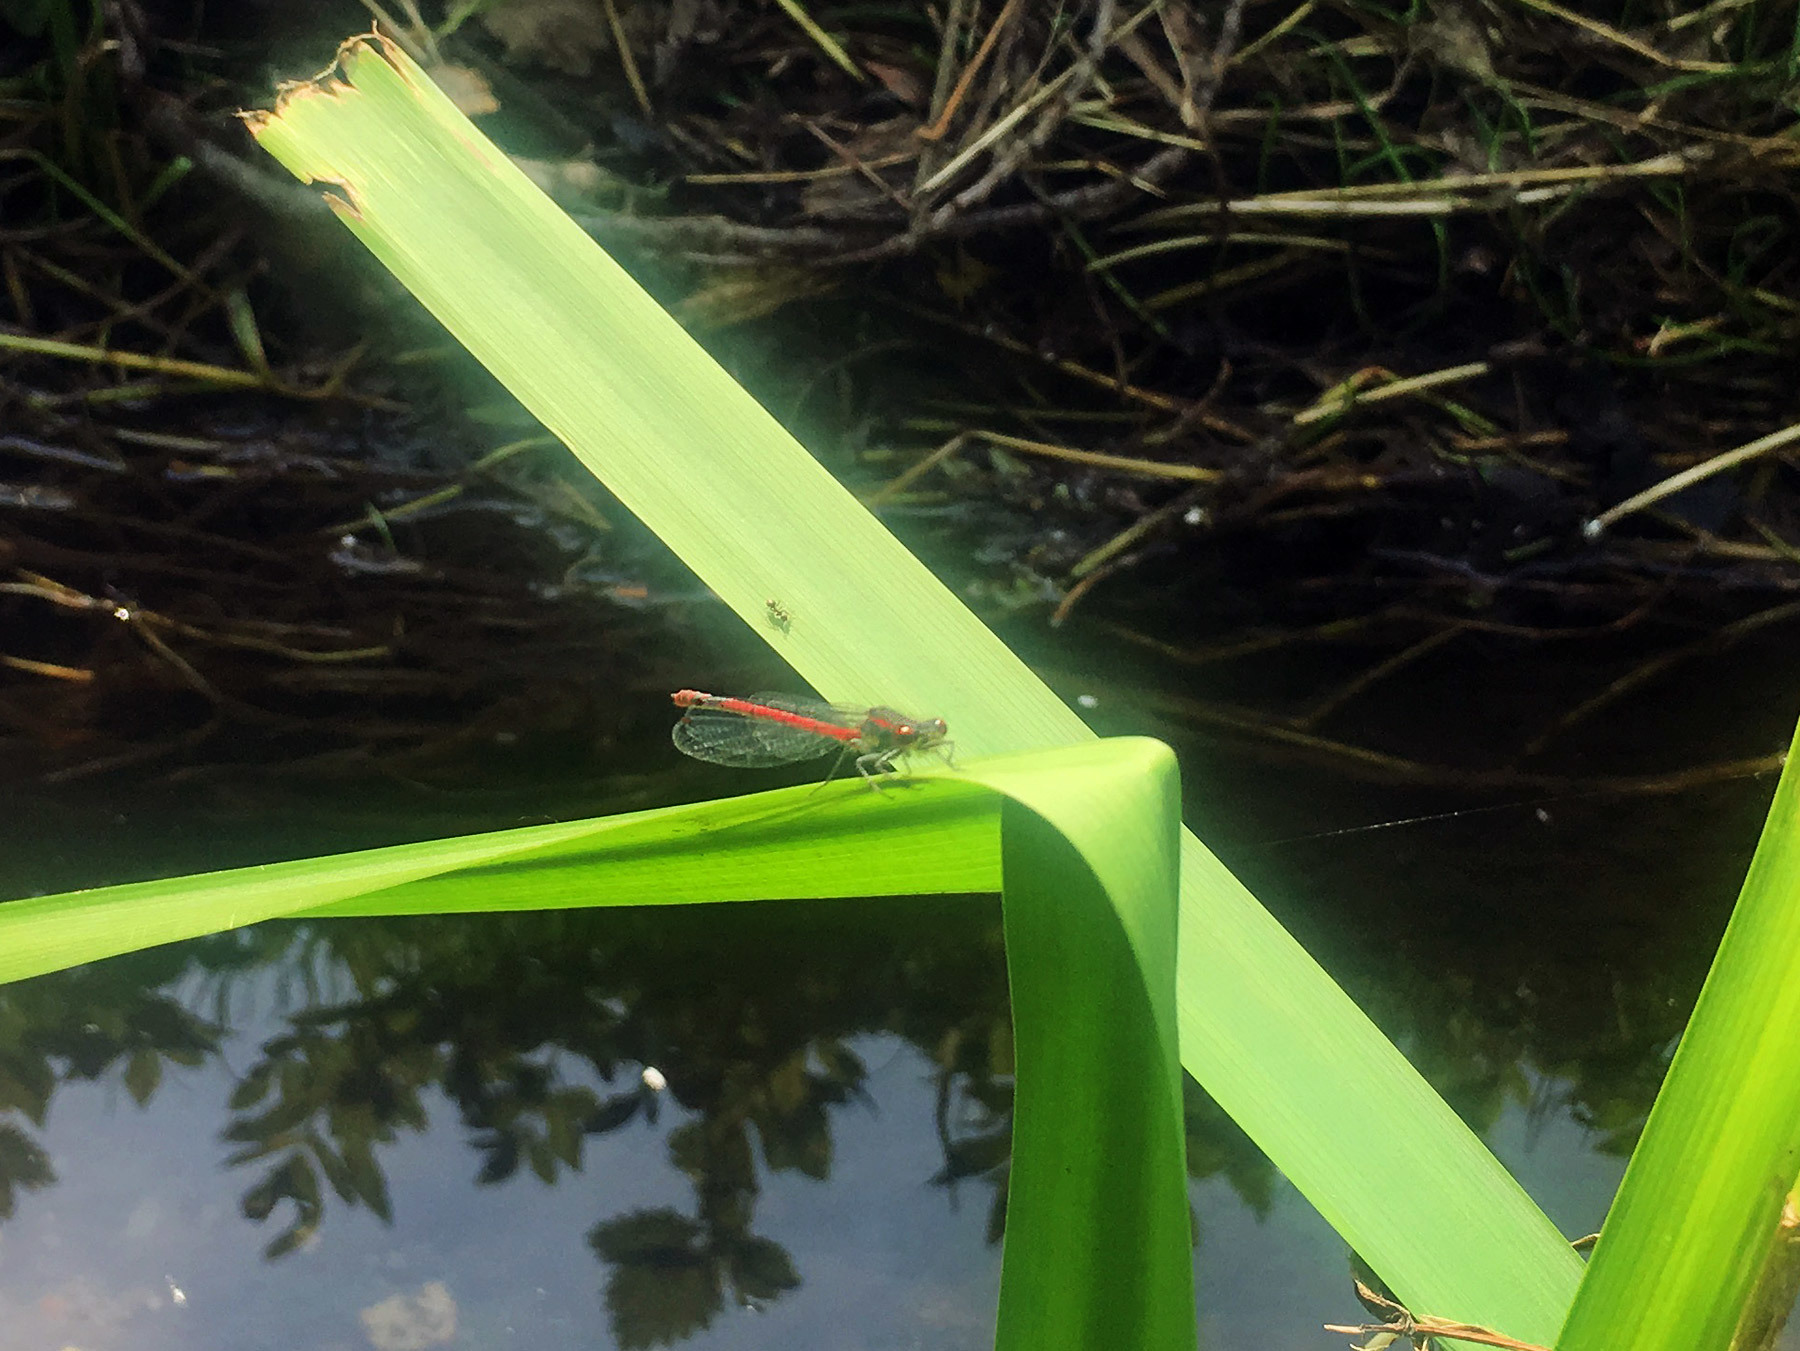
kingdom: Animalia
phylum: Arthropoda
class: Insecta
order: Odonata
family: Coenagrionidae
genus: Pyrrhosoma
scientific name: Pyrrhosoma nymphula
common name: Large red damsel
